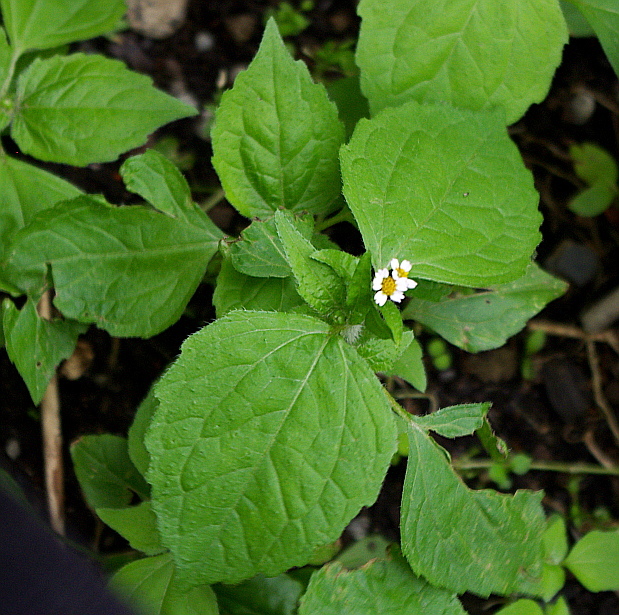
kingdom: Plantae
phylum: Tracheophyta
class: Magnoliopsida
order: Asterales
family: Asteraceae
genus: Galinsoga
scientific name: Galinsoga quadriradiata
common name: Shaggy soldier
